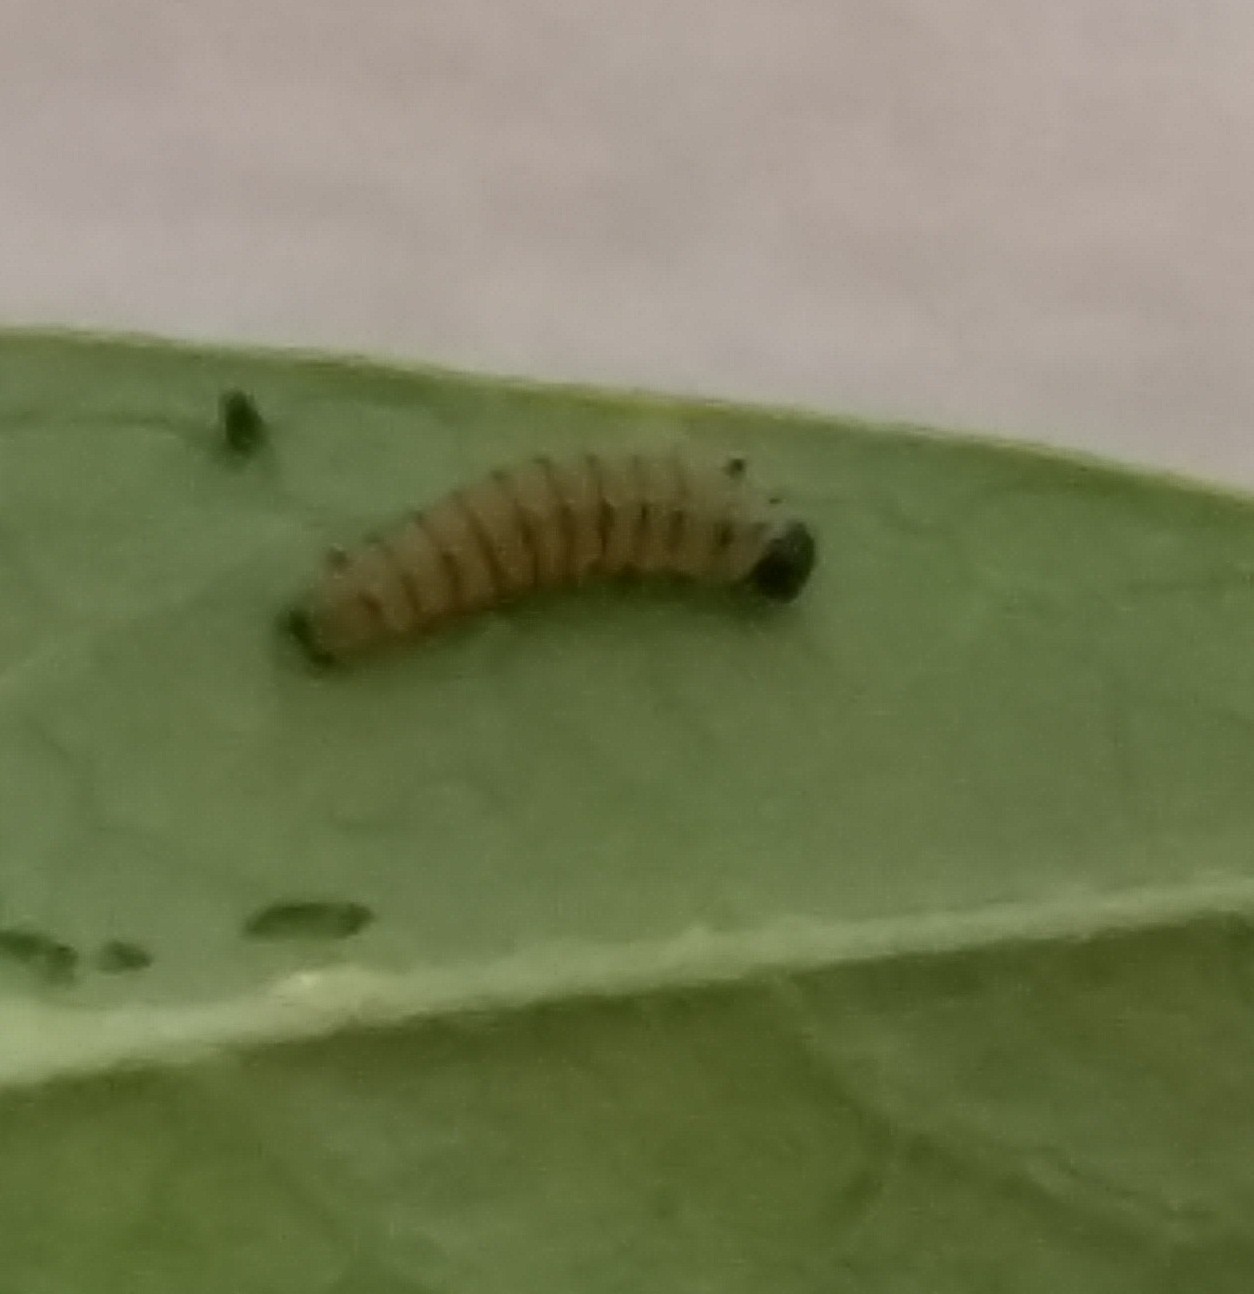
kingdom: Animalia
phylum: Arthropoda
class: Insecta
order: Lepidoptera
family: Nymphalidae
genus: Danaus
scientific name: Danaus plexippus
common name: Monarch
